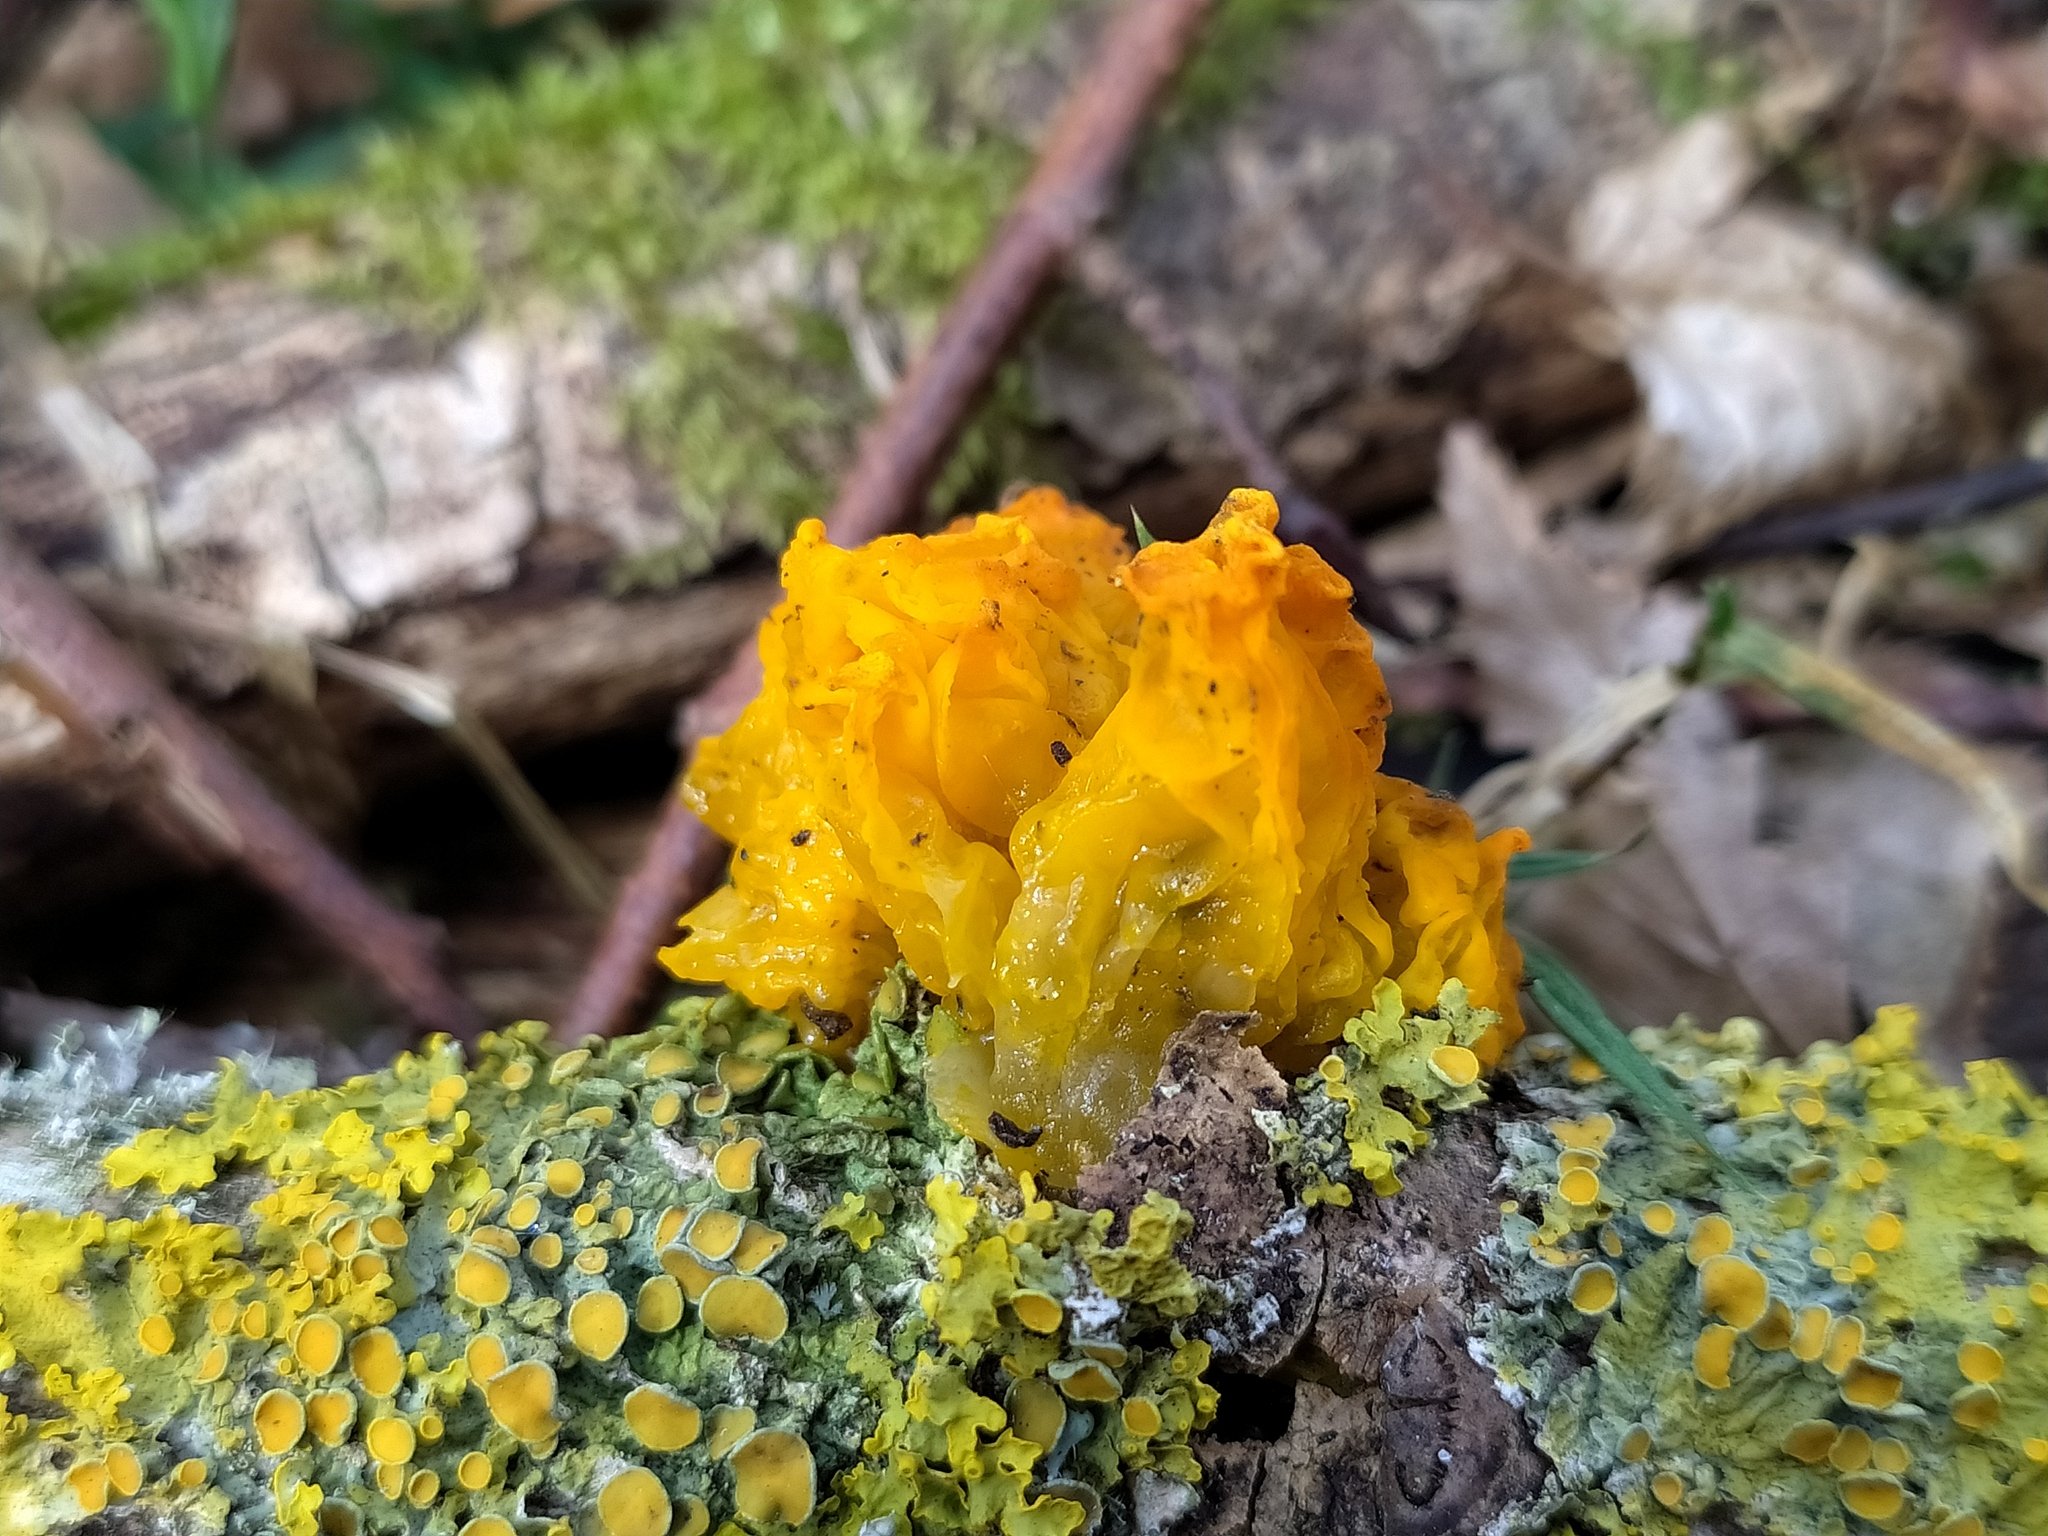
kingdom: Fungi
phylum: Basidiomycota
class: Tremellomycetes
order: Tremellales
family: Tremellaceae
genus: Tremella
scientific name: Tremella mesenterica
